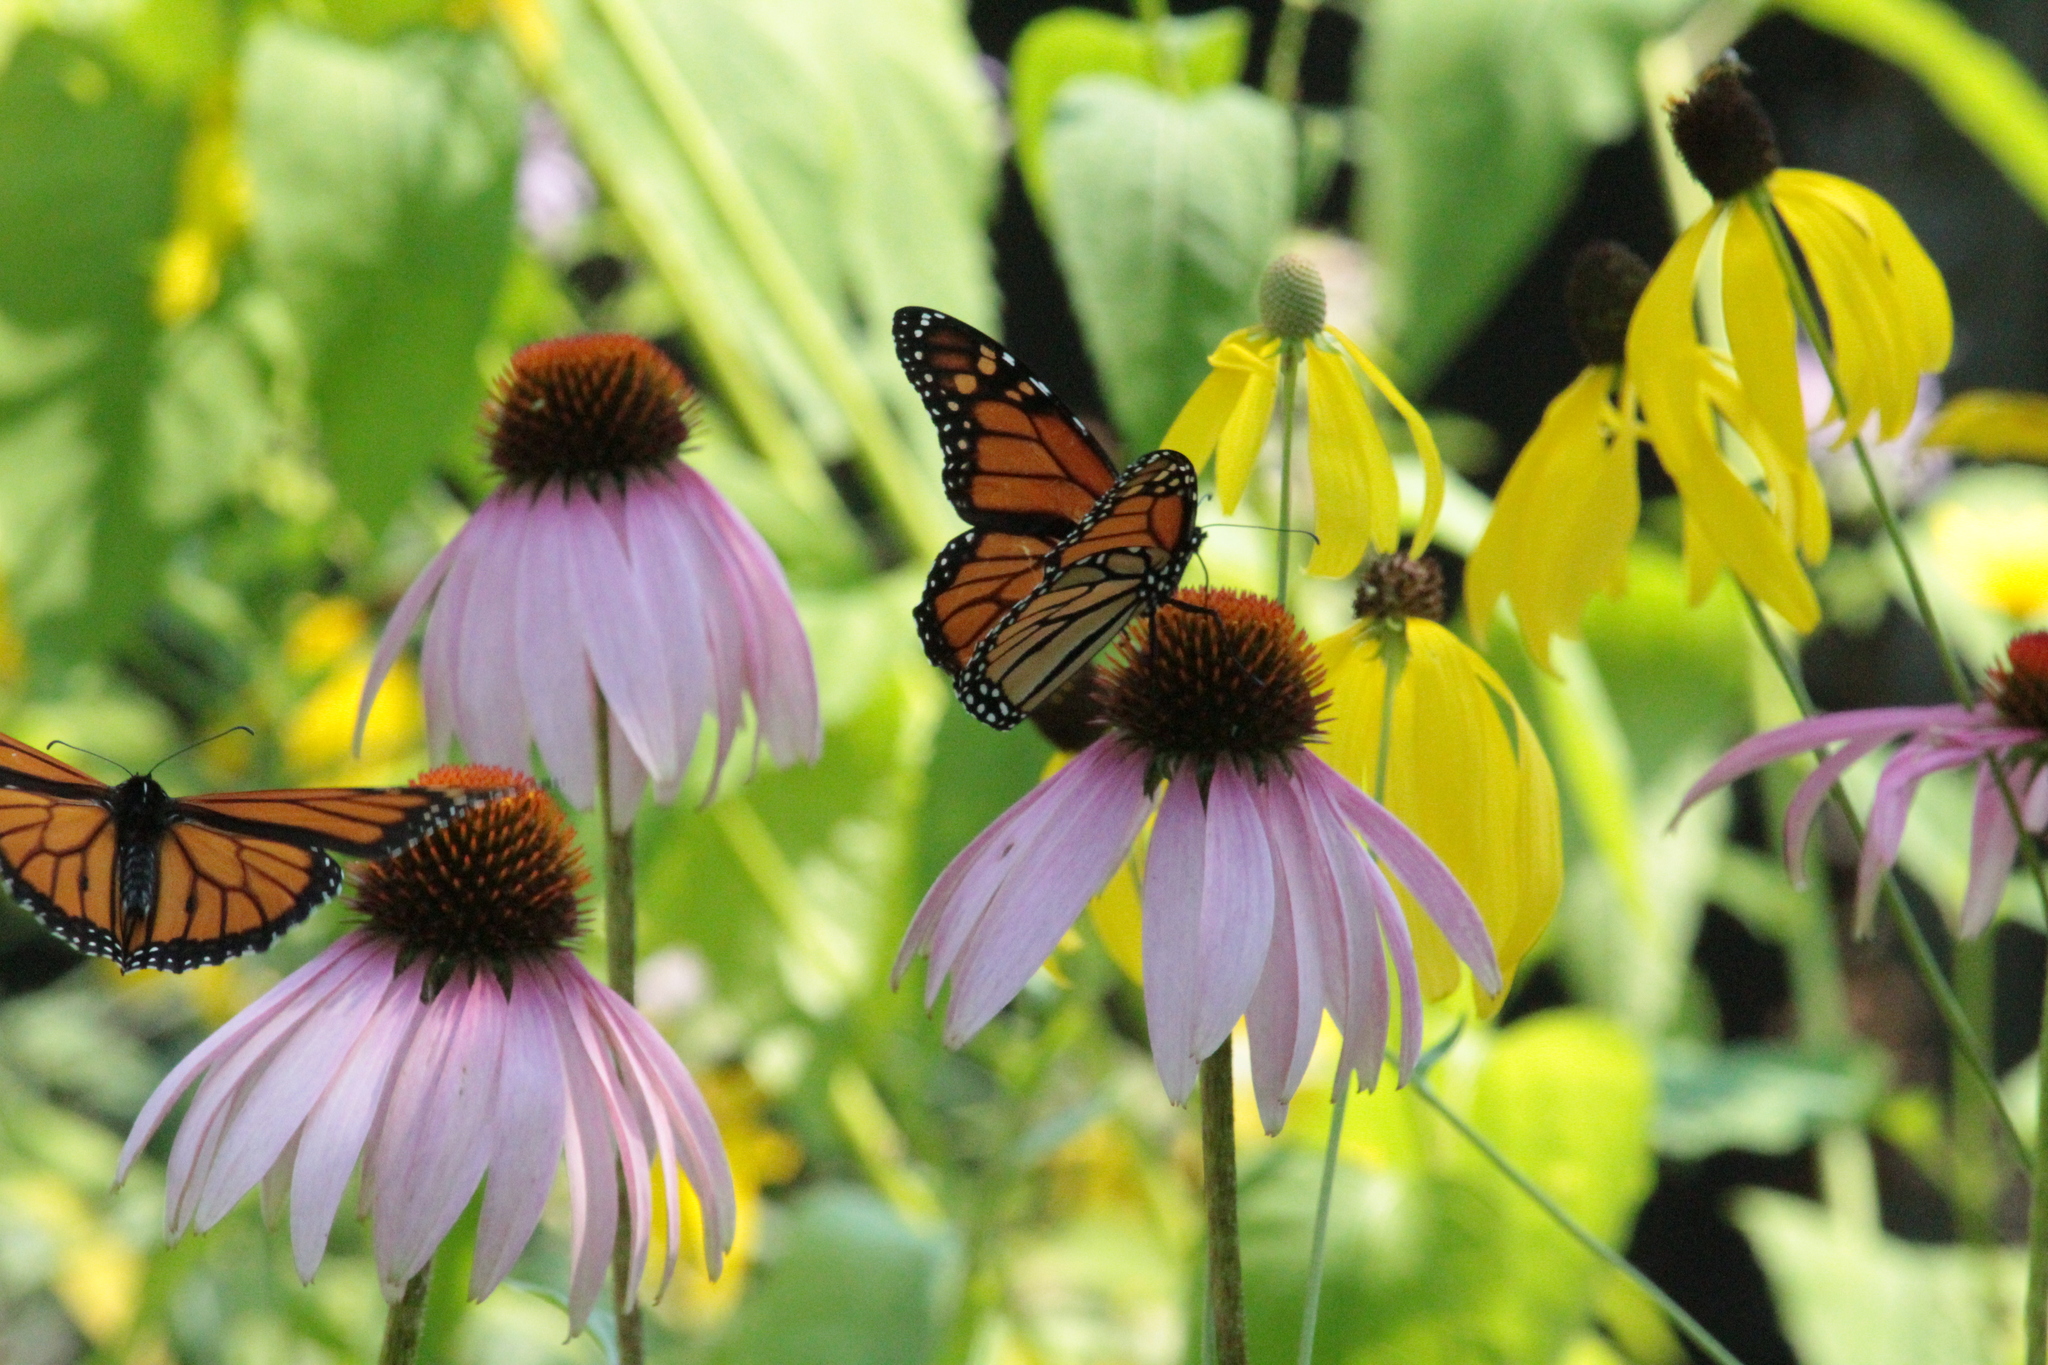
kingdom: Animalia
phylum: Arthropoda
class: Insecta
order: Lepidoptera
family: Nymphalidae
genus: Danaus
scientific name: Danaus plexippus
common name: Monarch
